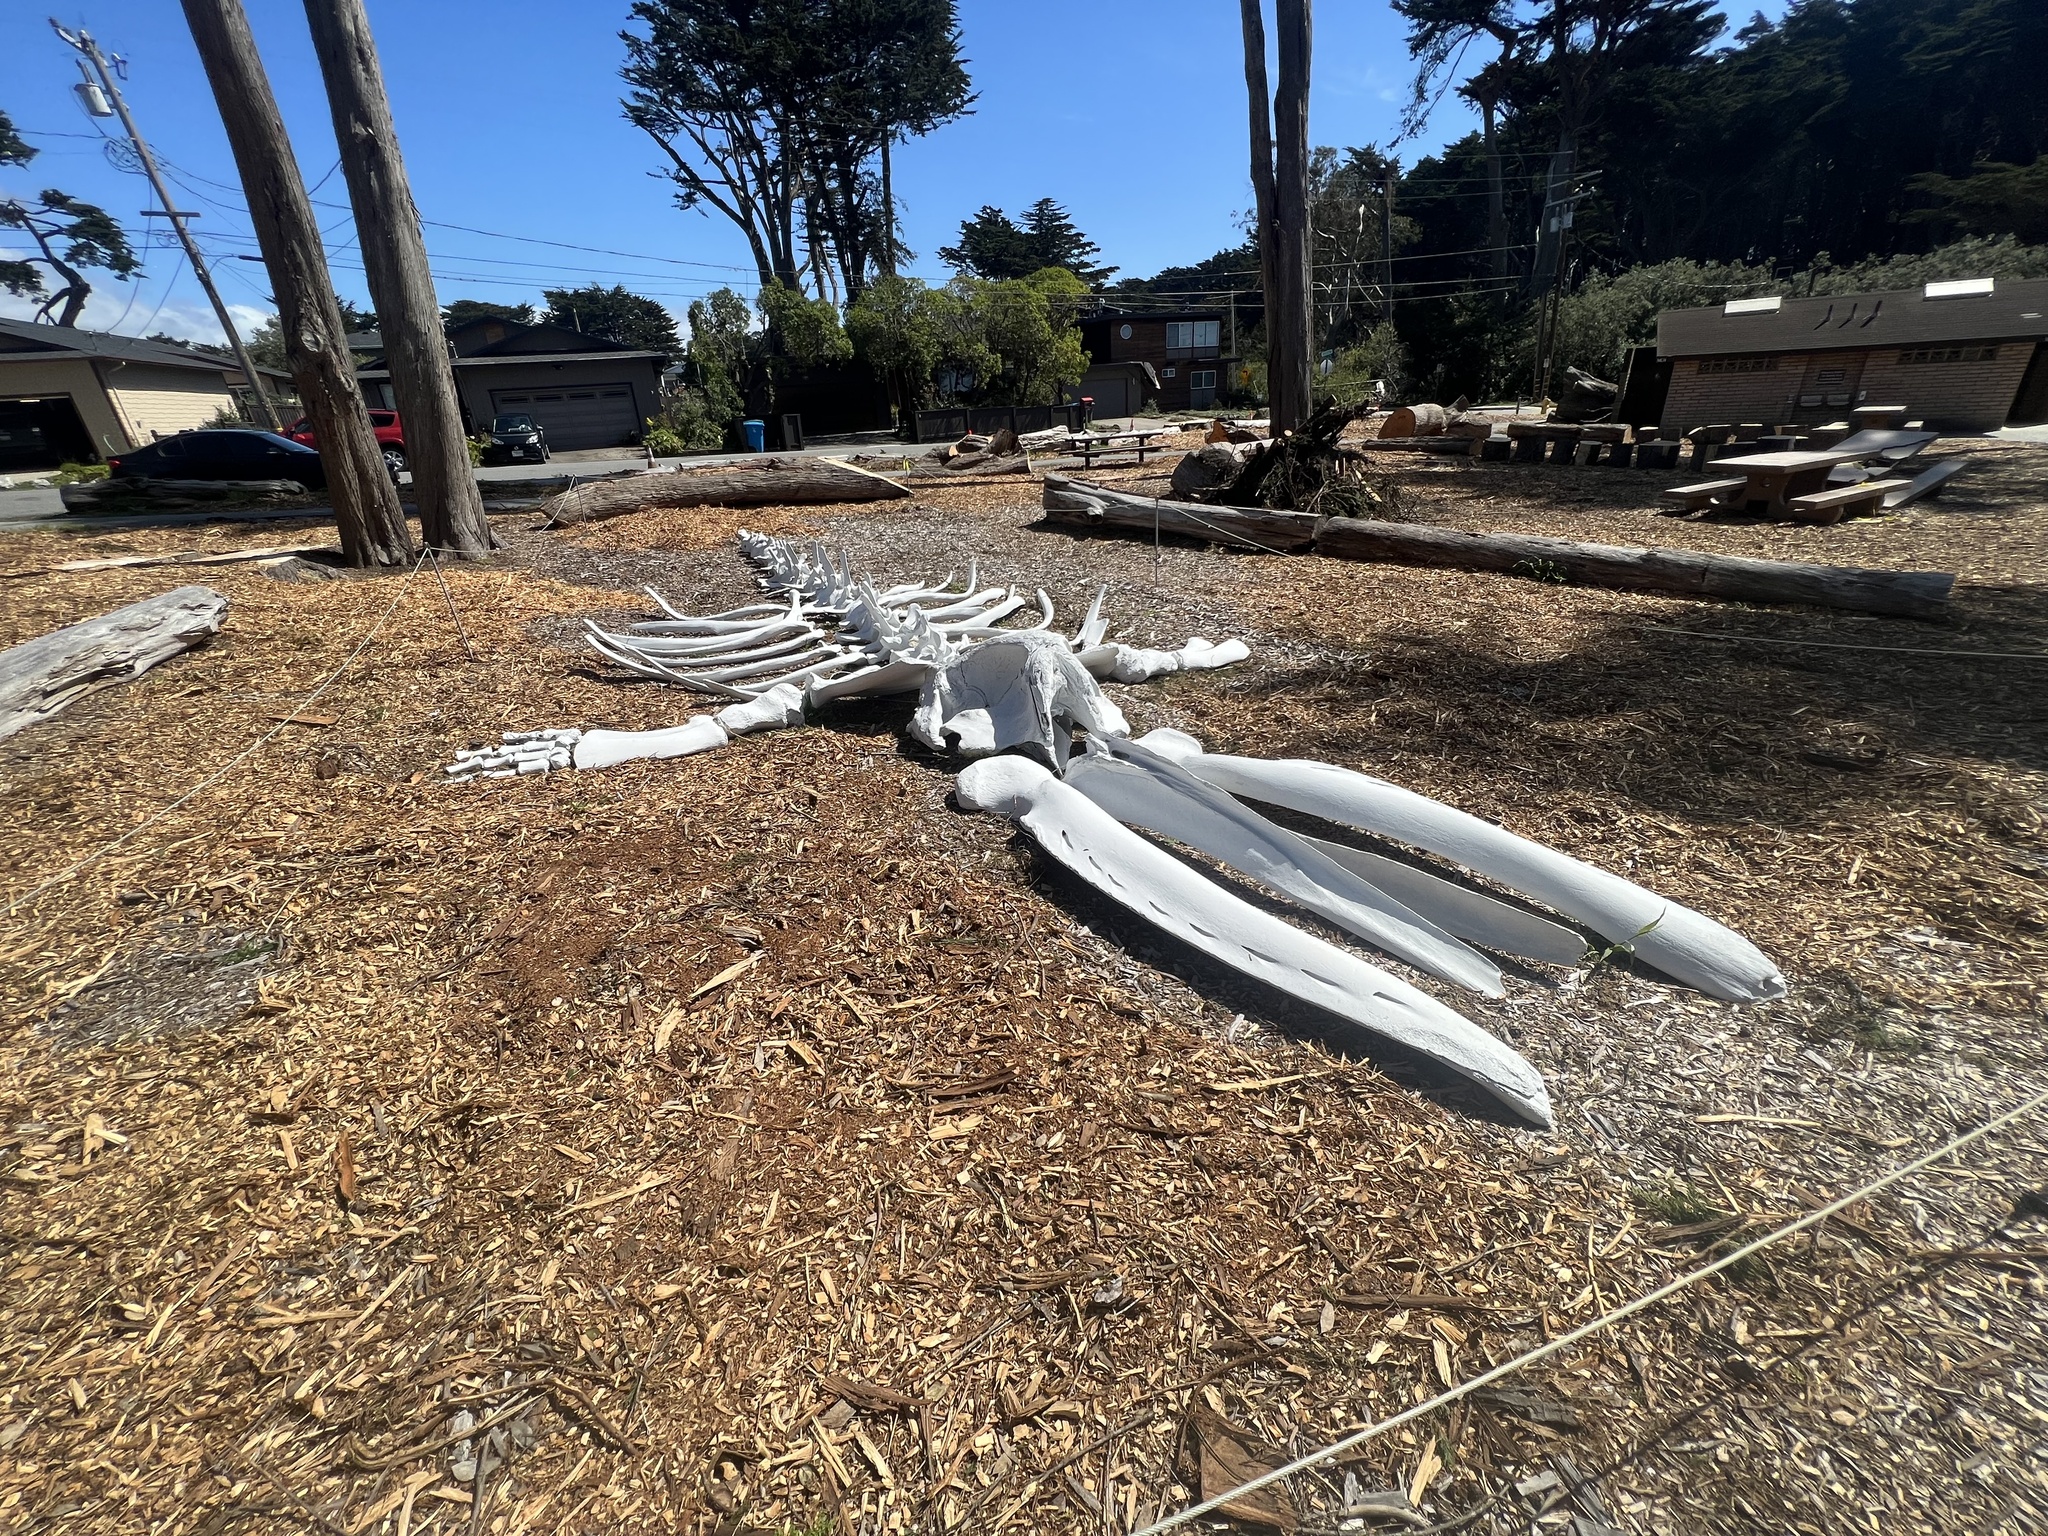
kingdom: Animalia
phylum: Chordata
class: Mammalia
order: Cetacea
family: Eschrichtiidae
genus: Eschrichtius
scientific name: Eschrichtius robustus
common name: Gray whale
